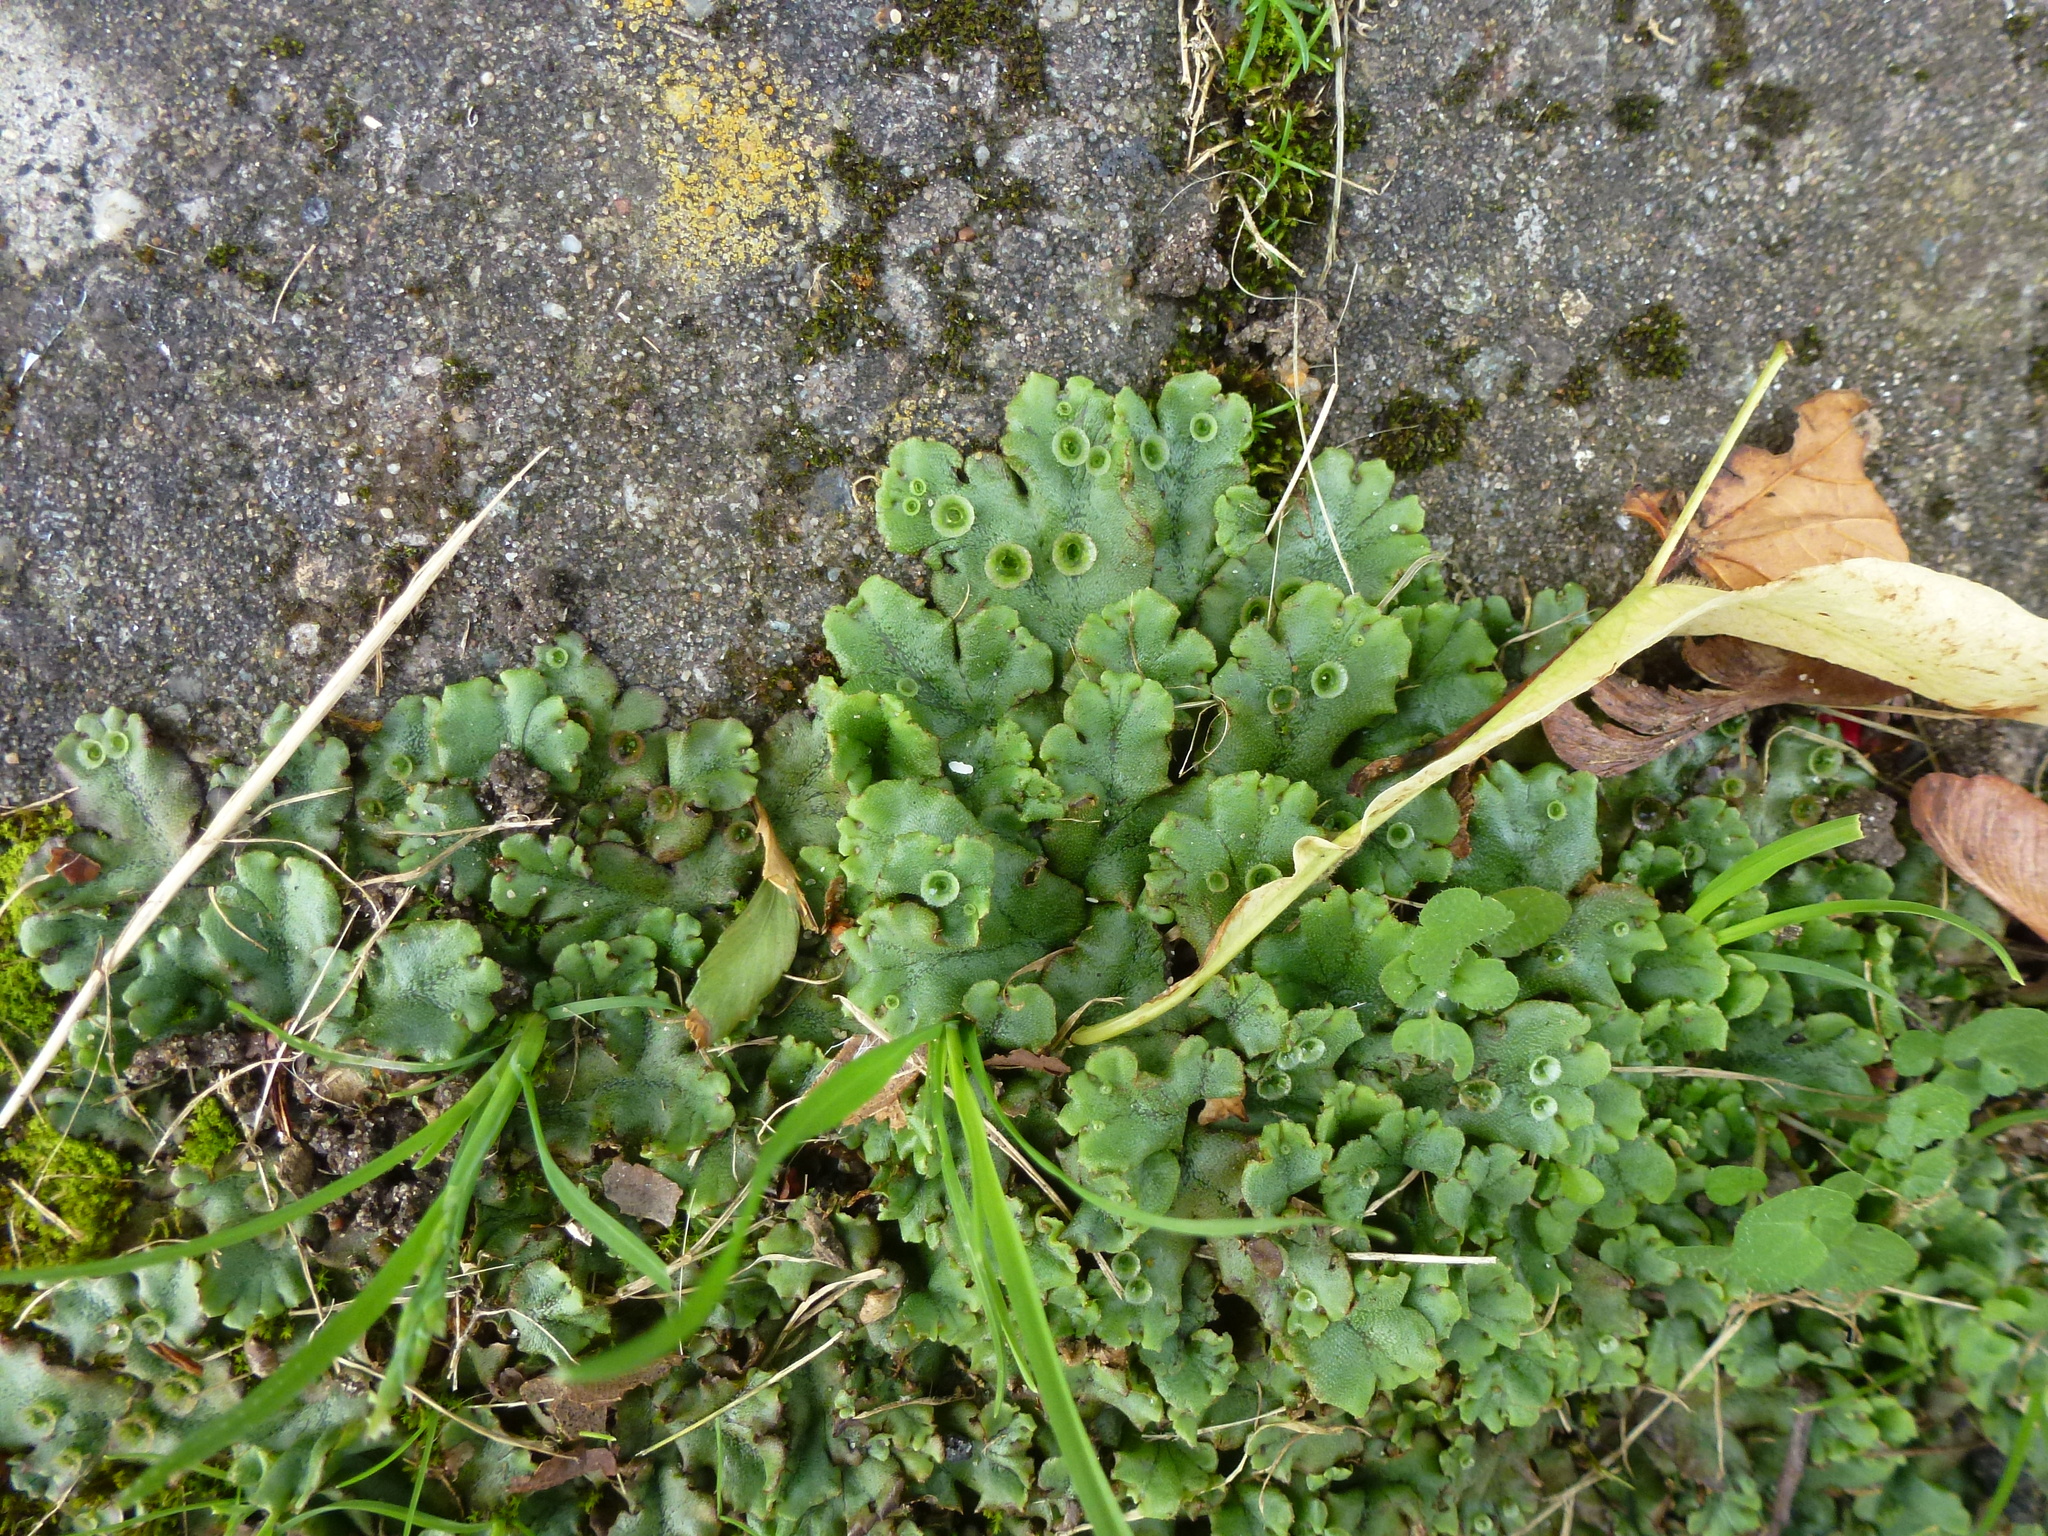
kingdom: Plantae
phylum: Marchantiophyta
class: Marchantiopsida
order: Marchantiales
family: Marchantiaceae
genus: Marchantia
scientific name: Marchantia polymorpha
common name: Common liverwort
